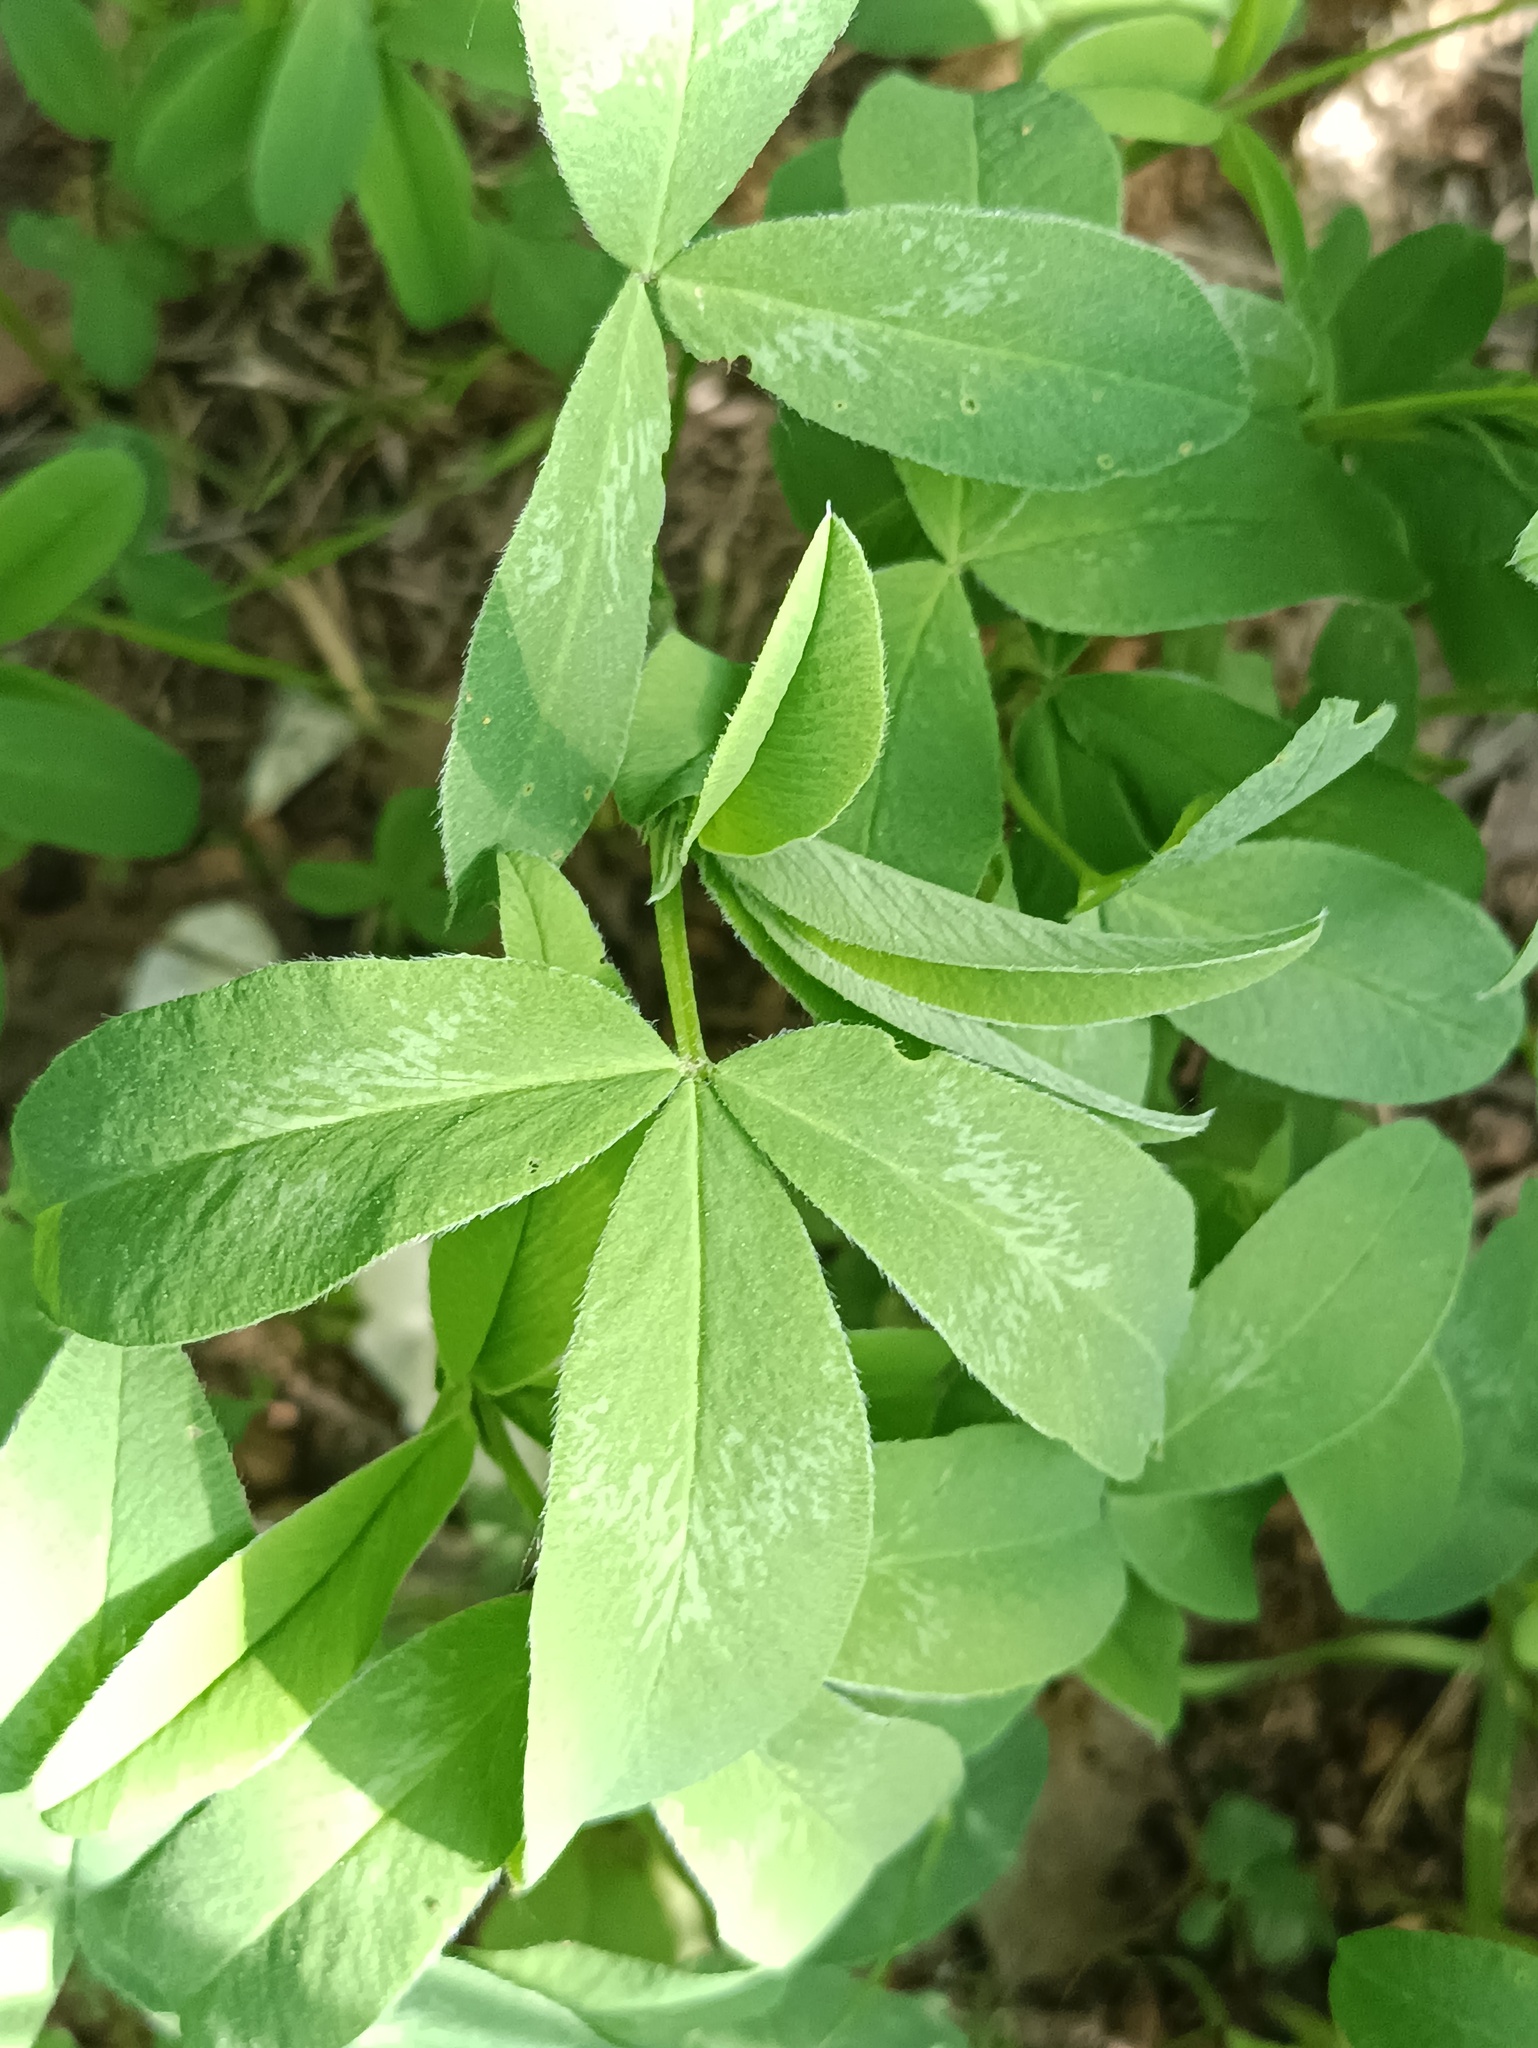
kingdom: Plantae
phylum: Tracheophyta
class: Magnoliopsida
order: Fabales
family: Fabaceae
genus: Trifolium
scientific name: Trifolium pratense
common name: Red clover
